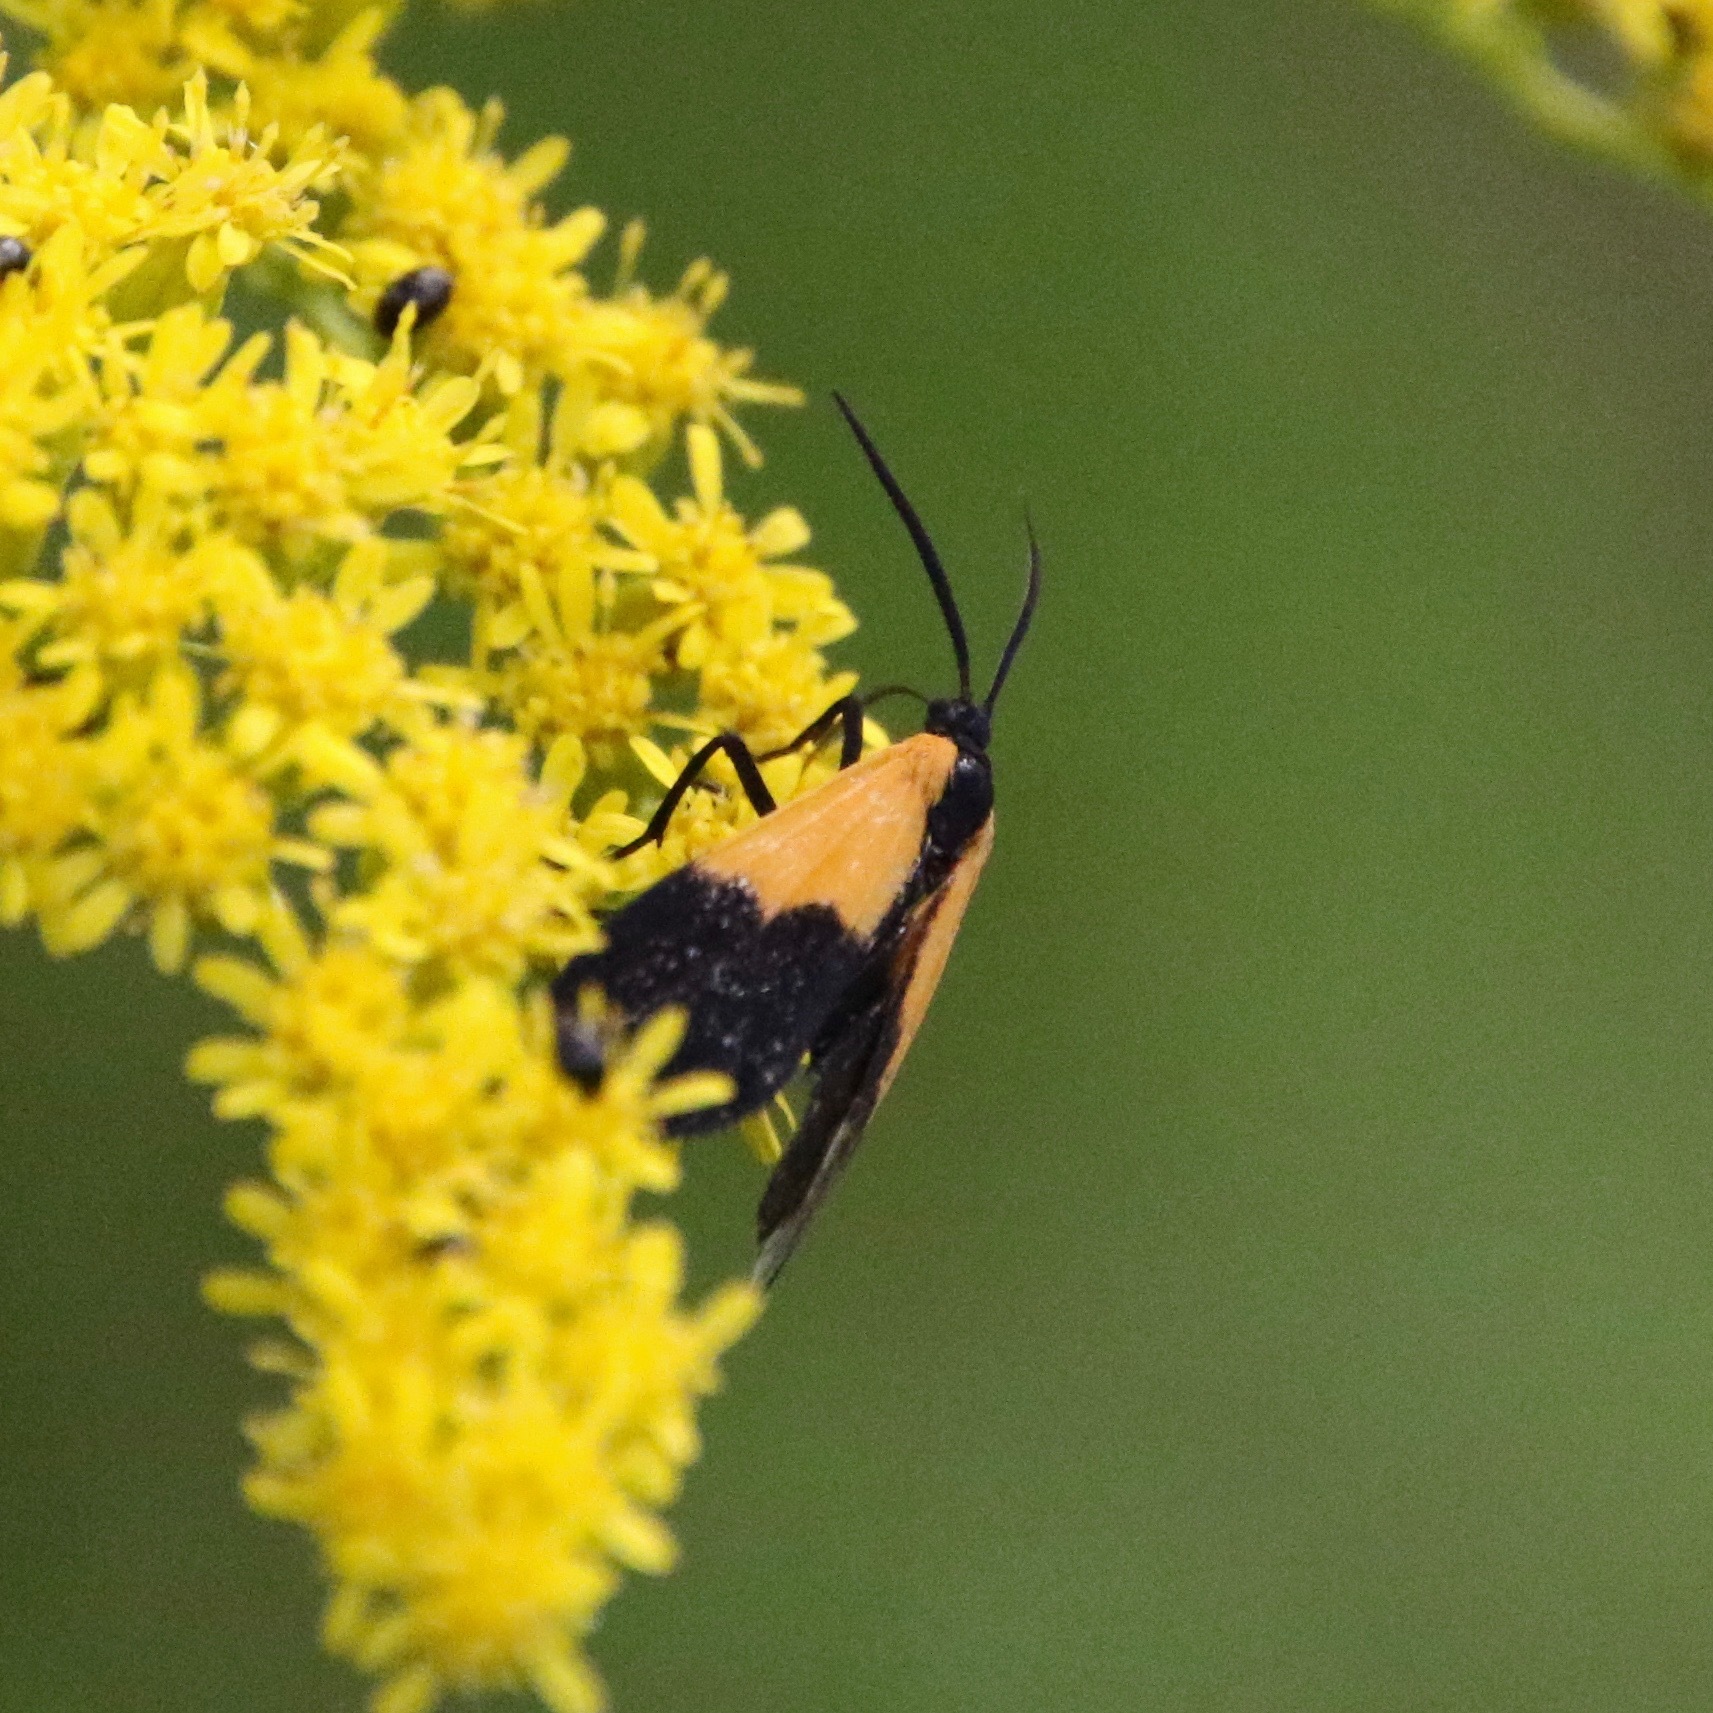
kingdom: Animalia
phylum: Arthropoda
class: Insecta
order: Lepidoptera
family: Erebidae
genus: Lycomorpha
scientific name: Lycomorpha pholus
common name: Black-and-yellow lichen moth
